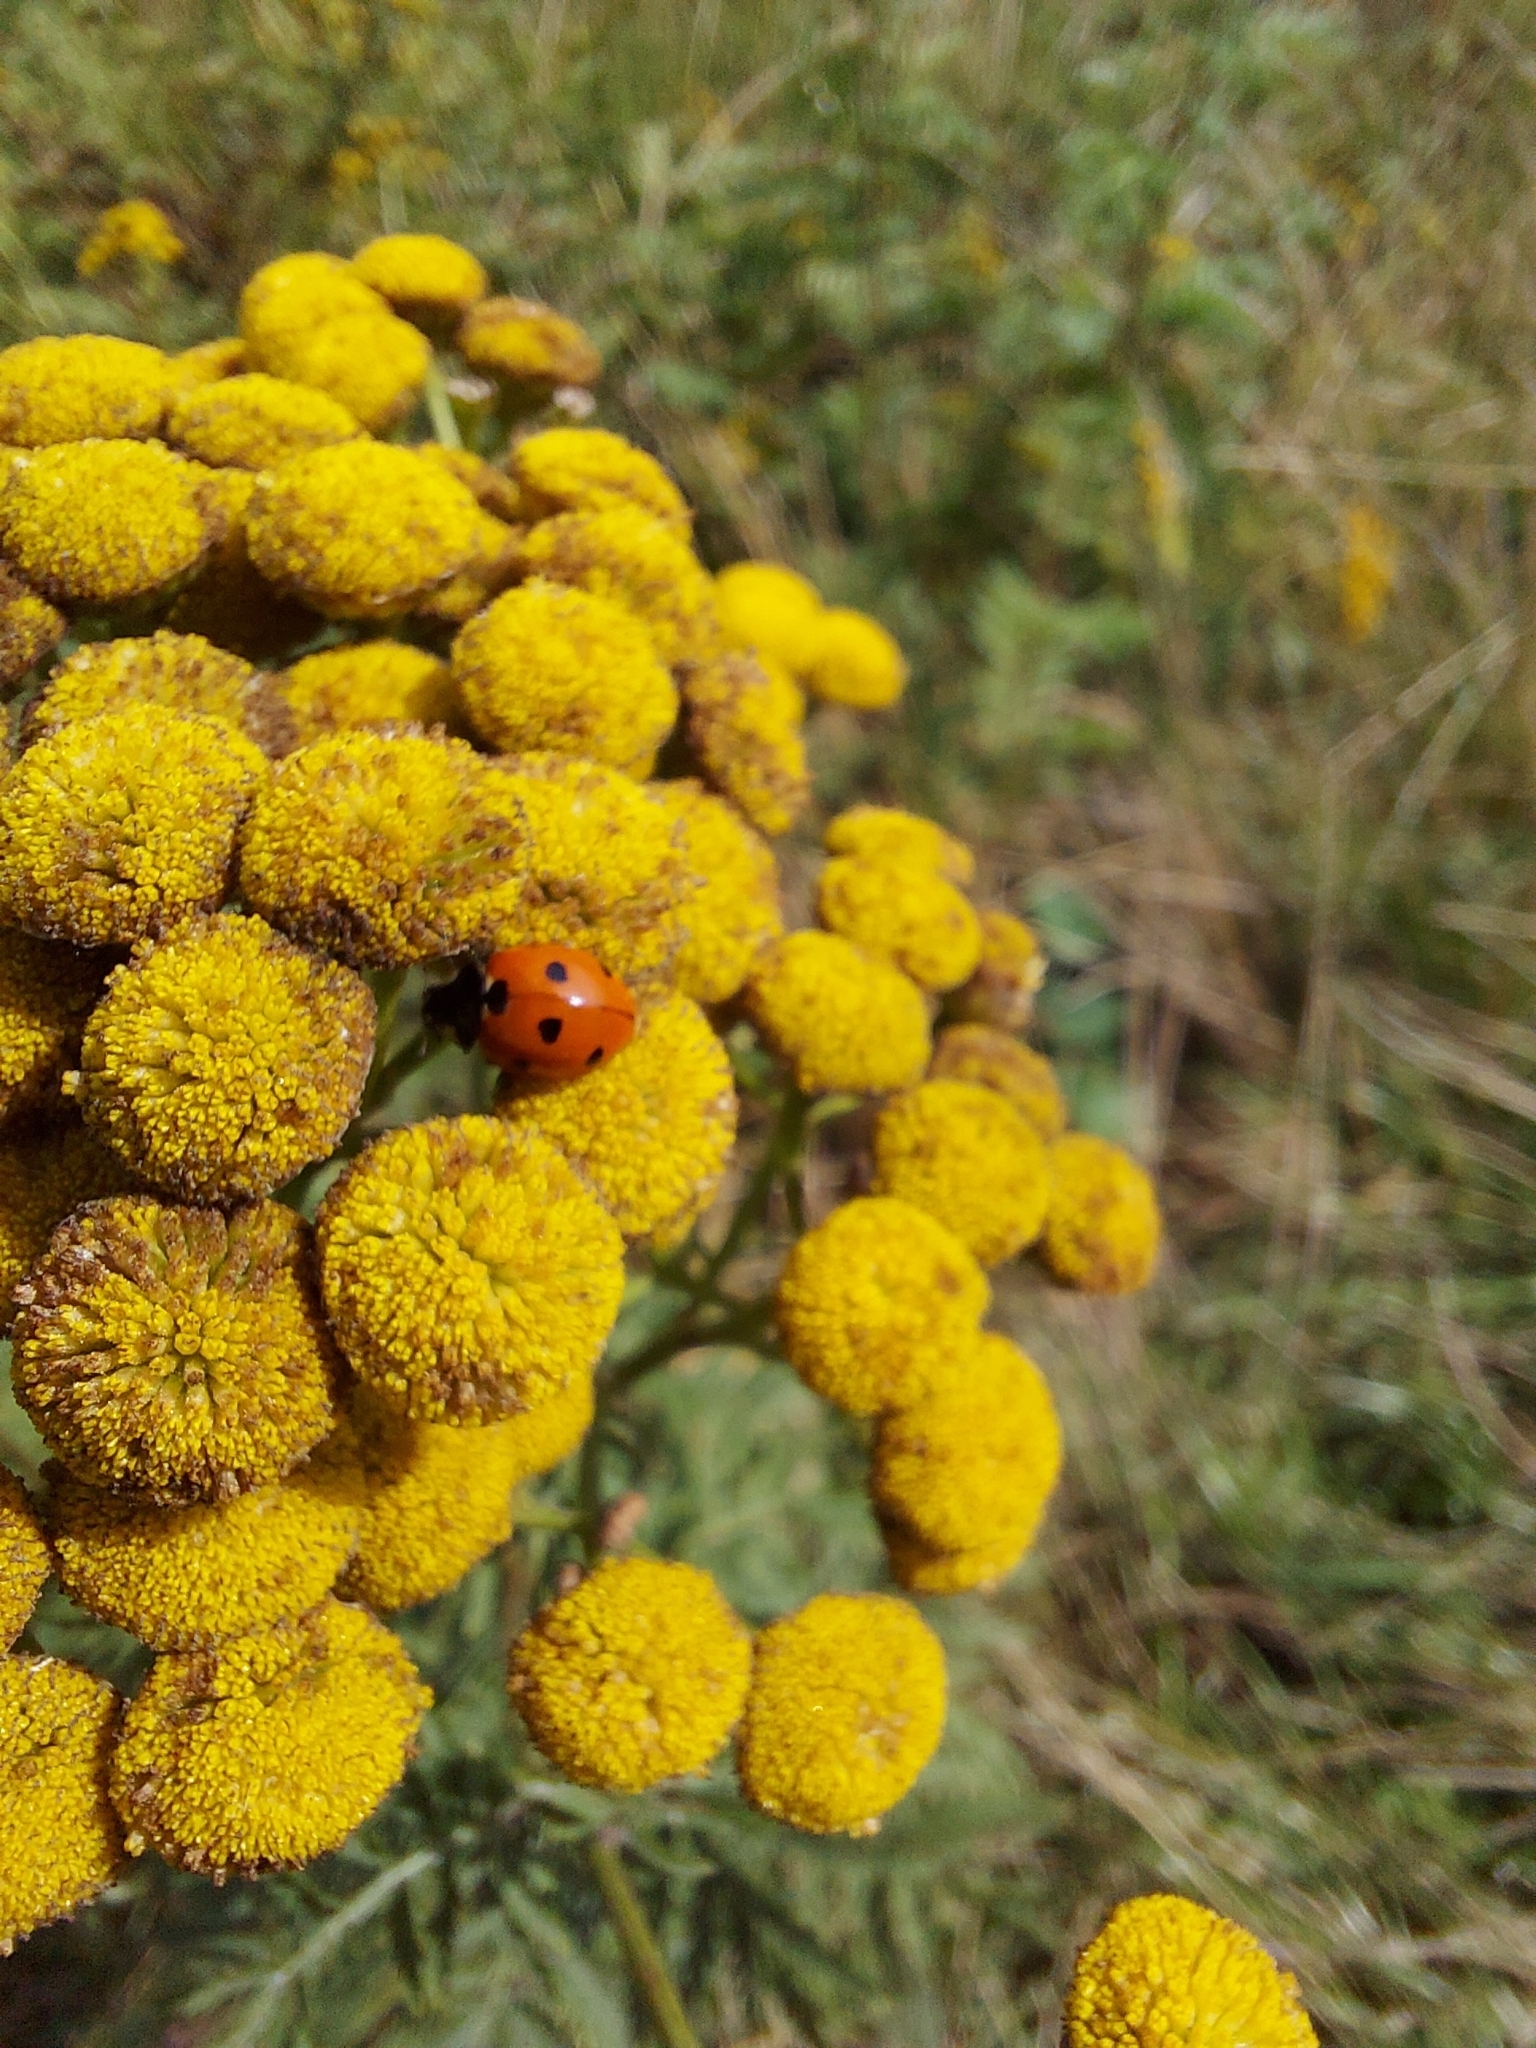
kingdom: Animalia
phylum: Arthropoda
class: Insecta
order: Coleoptera
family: Coccinellidae
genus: Coccinella
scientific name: Coccinella septempunctata
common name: Sevenspotted lady beetle
